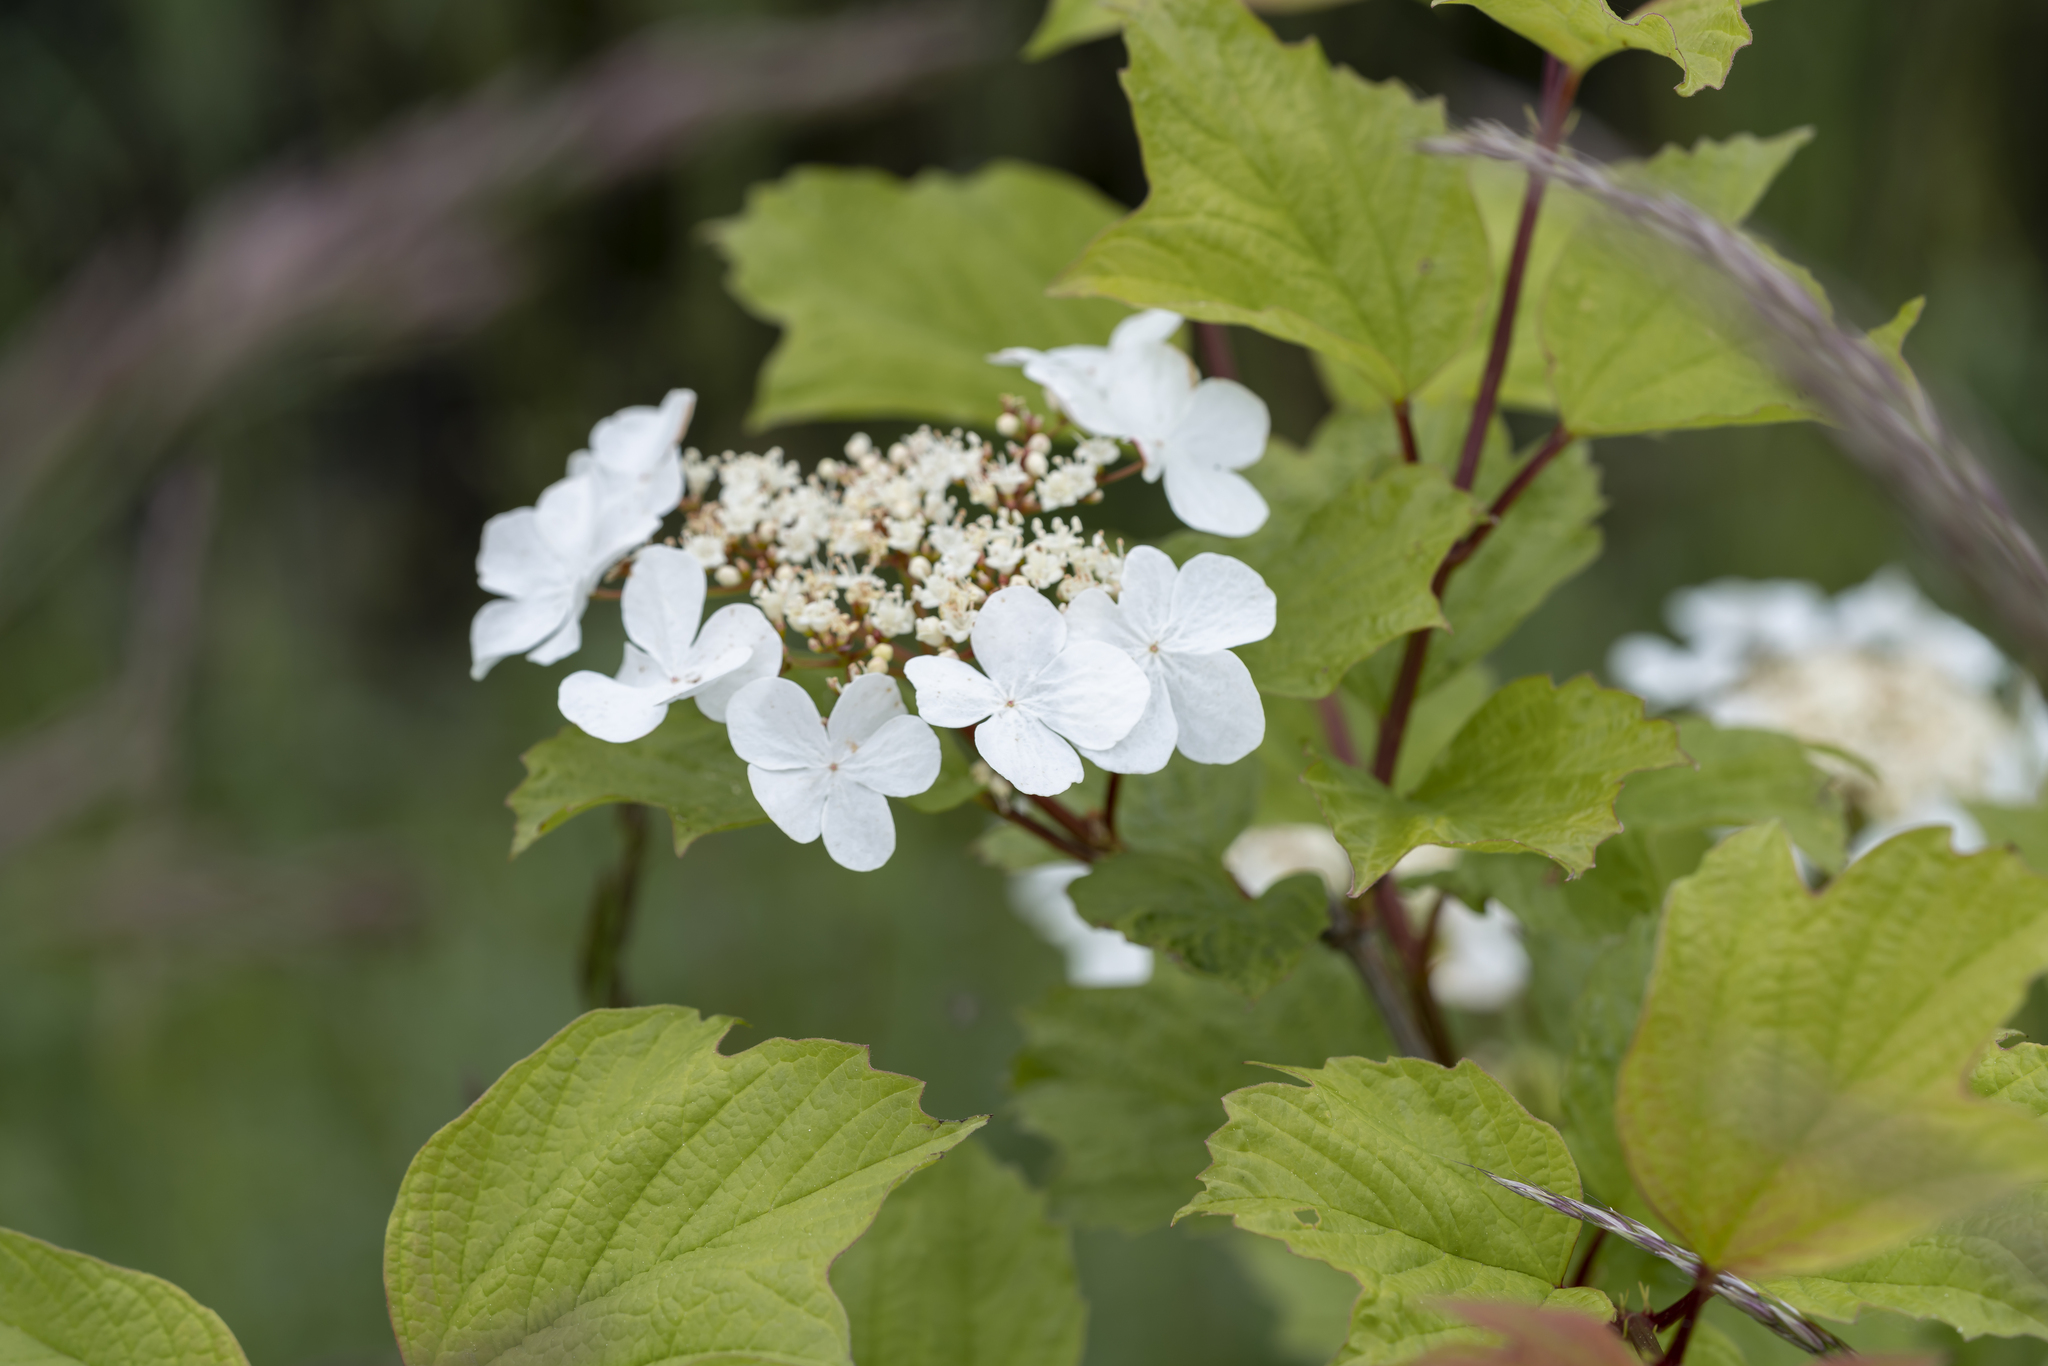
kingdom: Plantae
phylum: Tracheophyta
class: Magnoliopsida
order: Dipsacales
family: Viburnaceae
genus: Viburnum
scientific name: Viburnum opulus
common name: Guelder-rose
